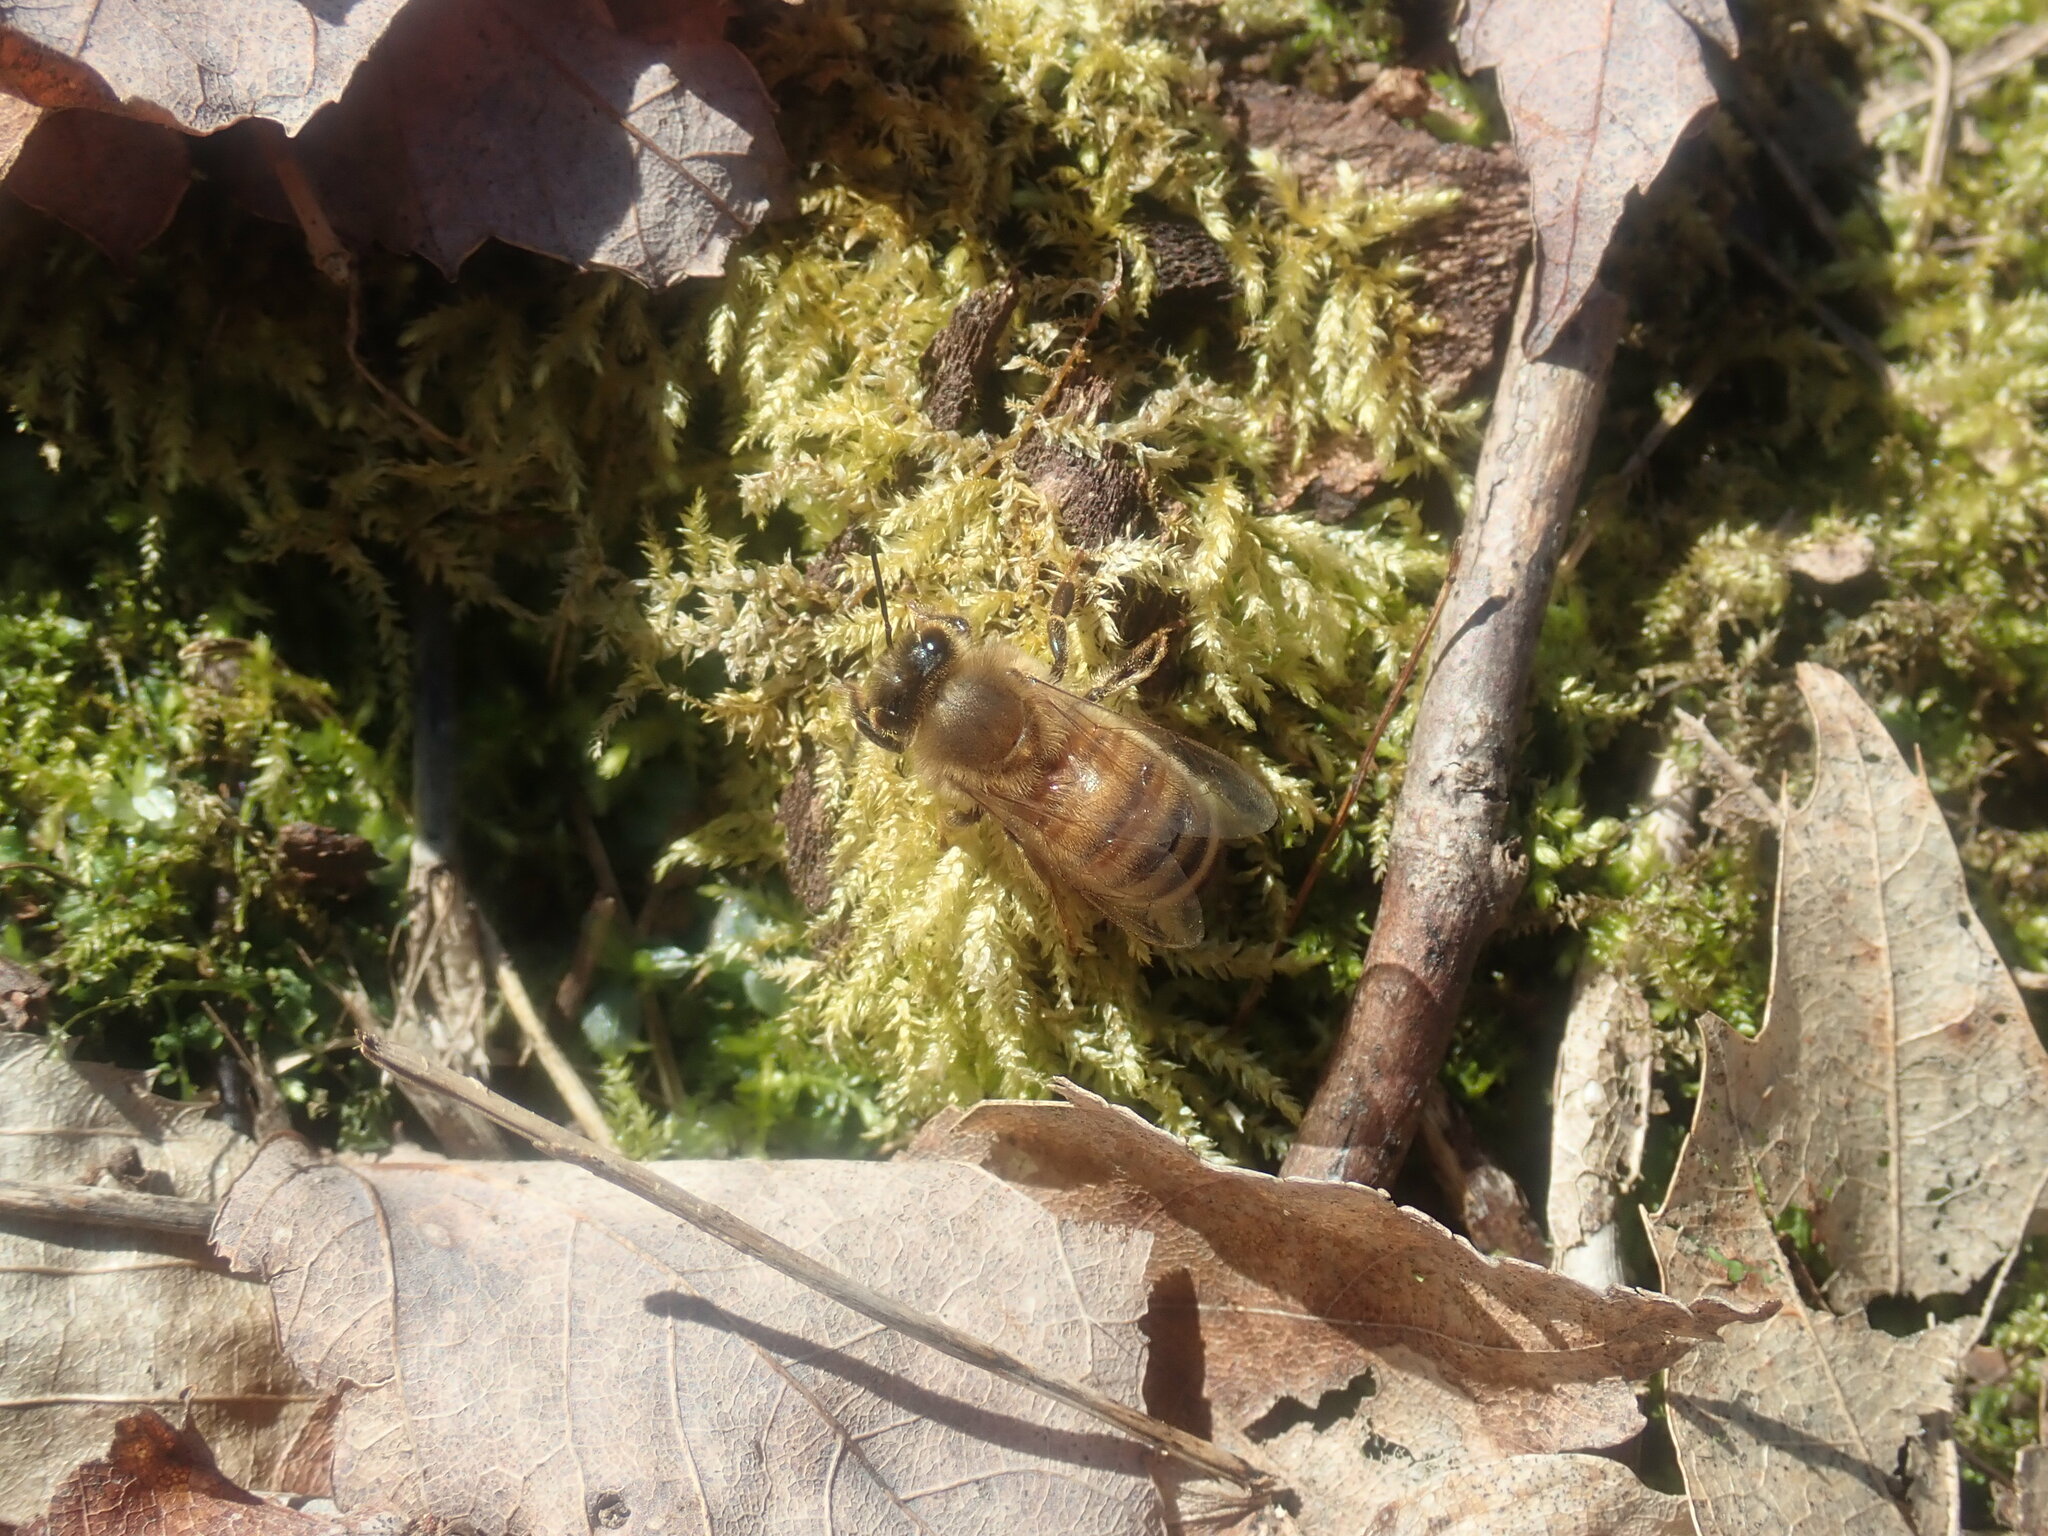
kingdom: Animalia
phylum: Arthropoda
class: Insecta
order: Hymenoptera
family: Apidae
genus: Apis
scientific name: Apis mellifera
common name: Honey bee
